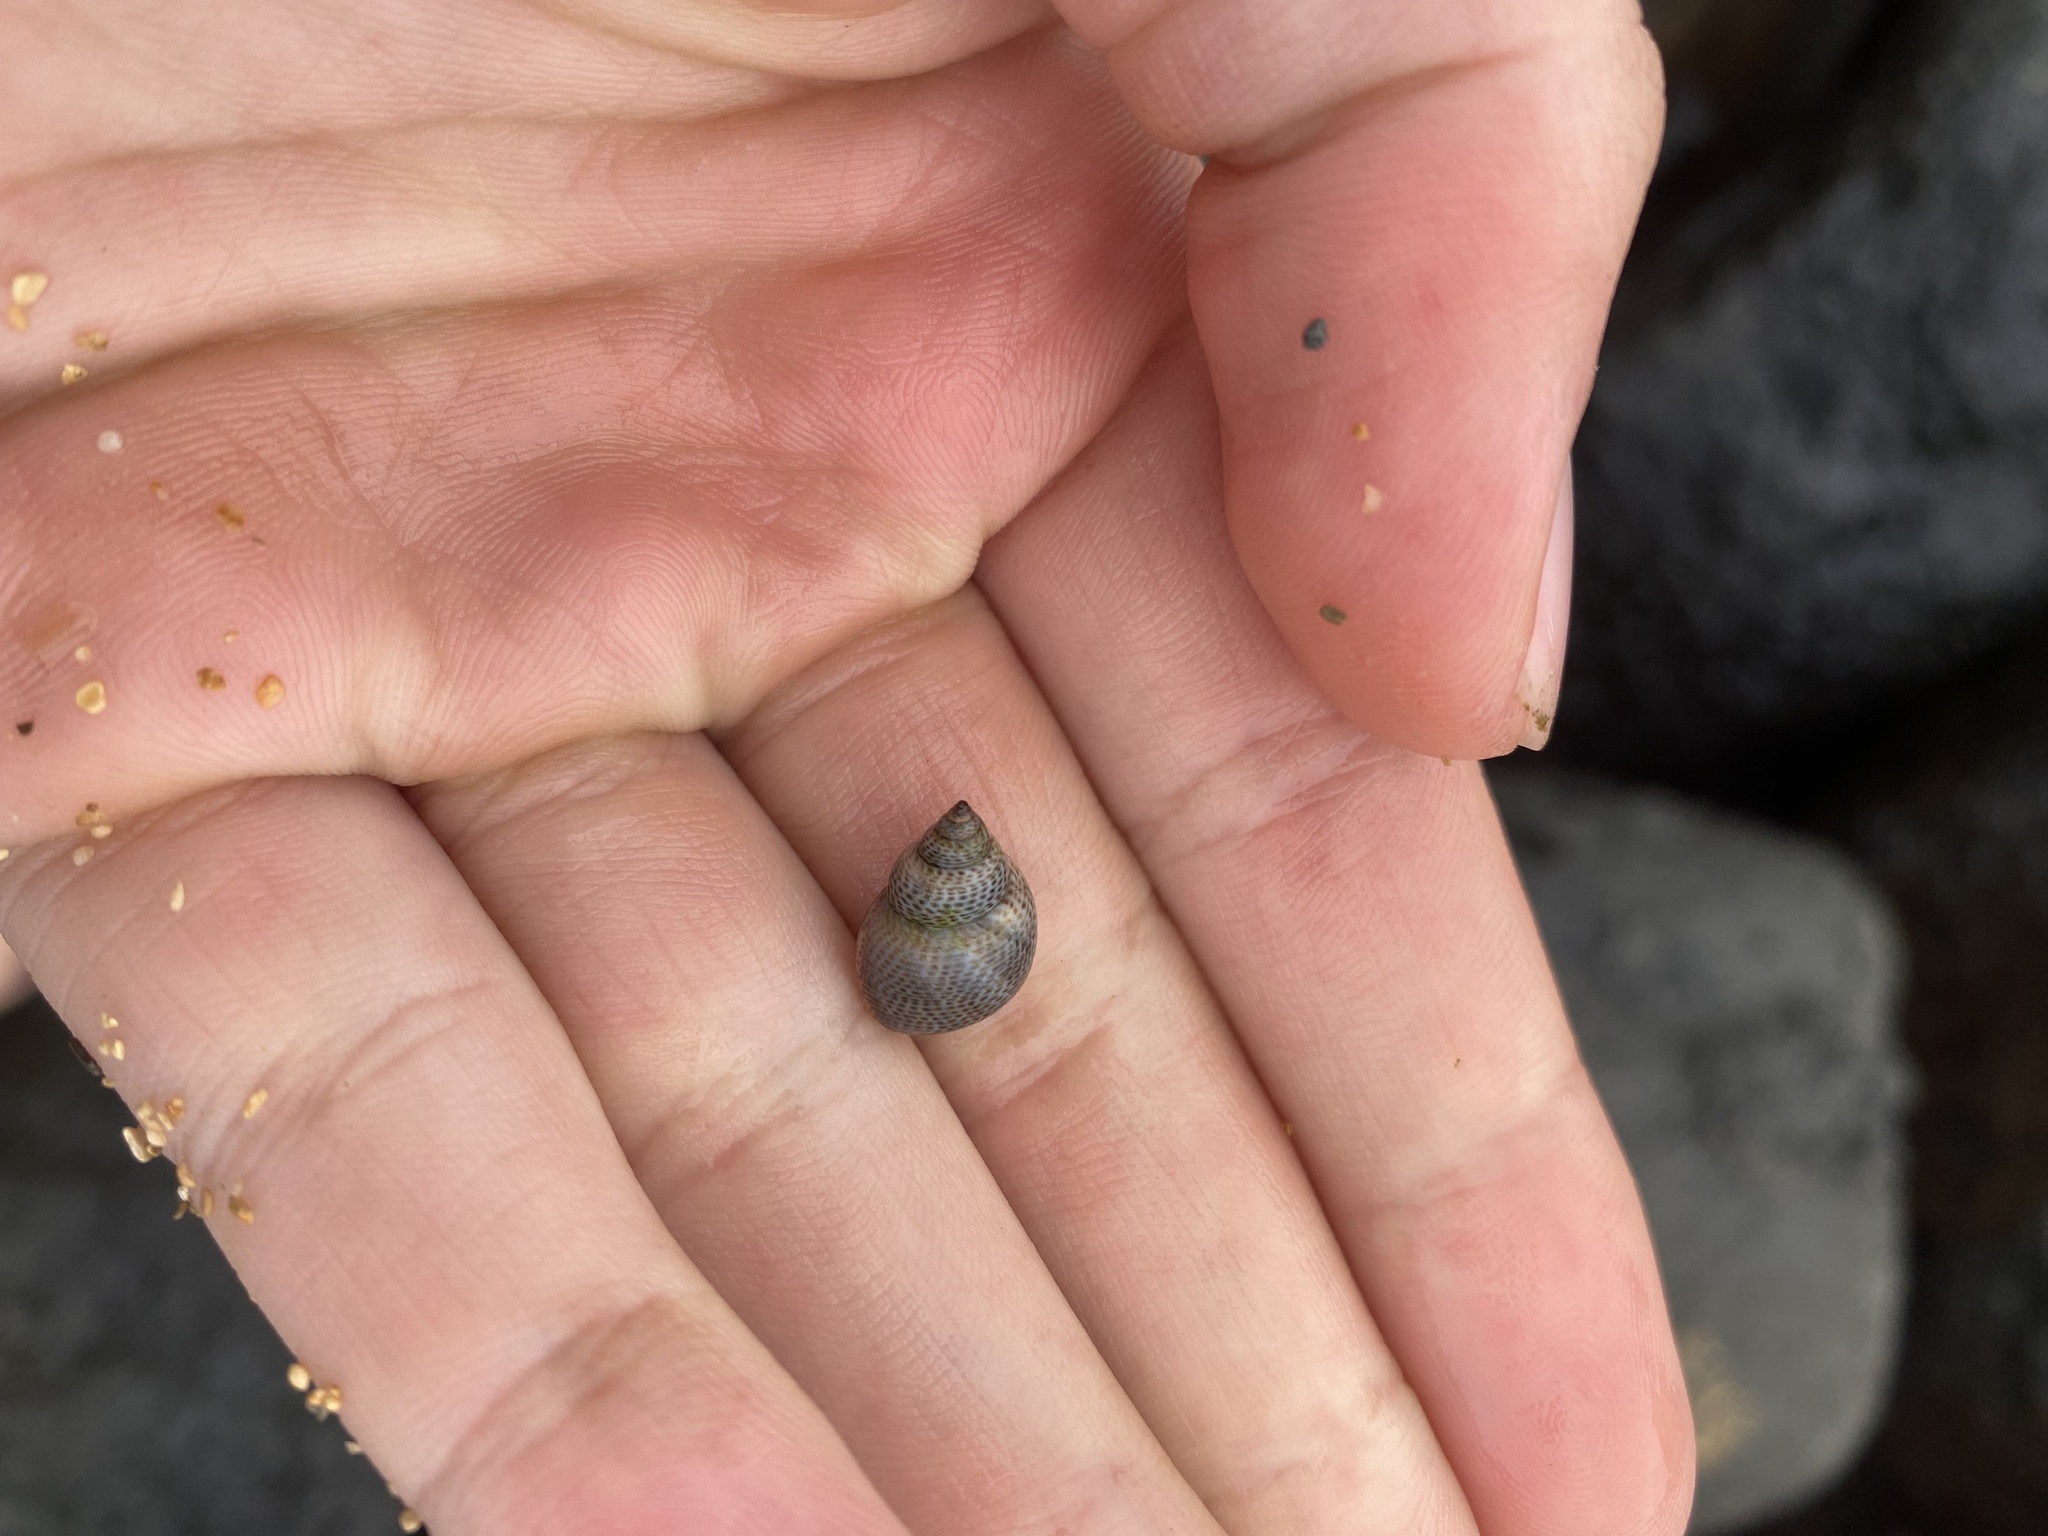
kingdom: Animalia
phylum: Mollusca
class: Gastropoda
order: Littorinimorpha
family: Littorinidae
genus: Littoraria
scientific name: Littoraria pintado
